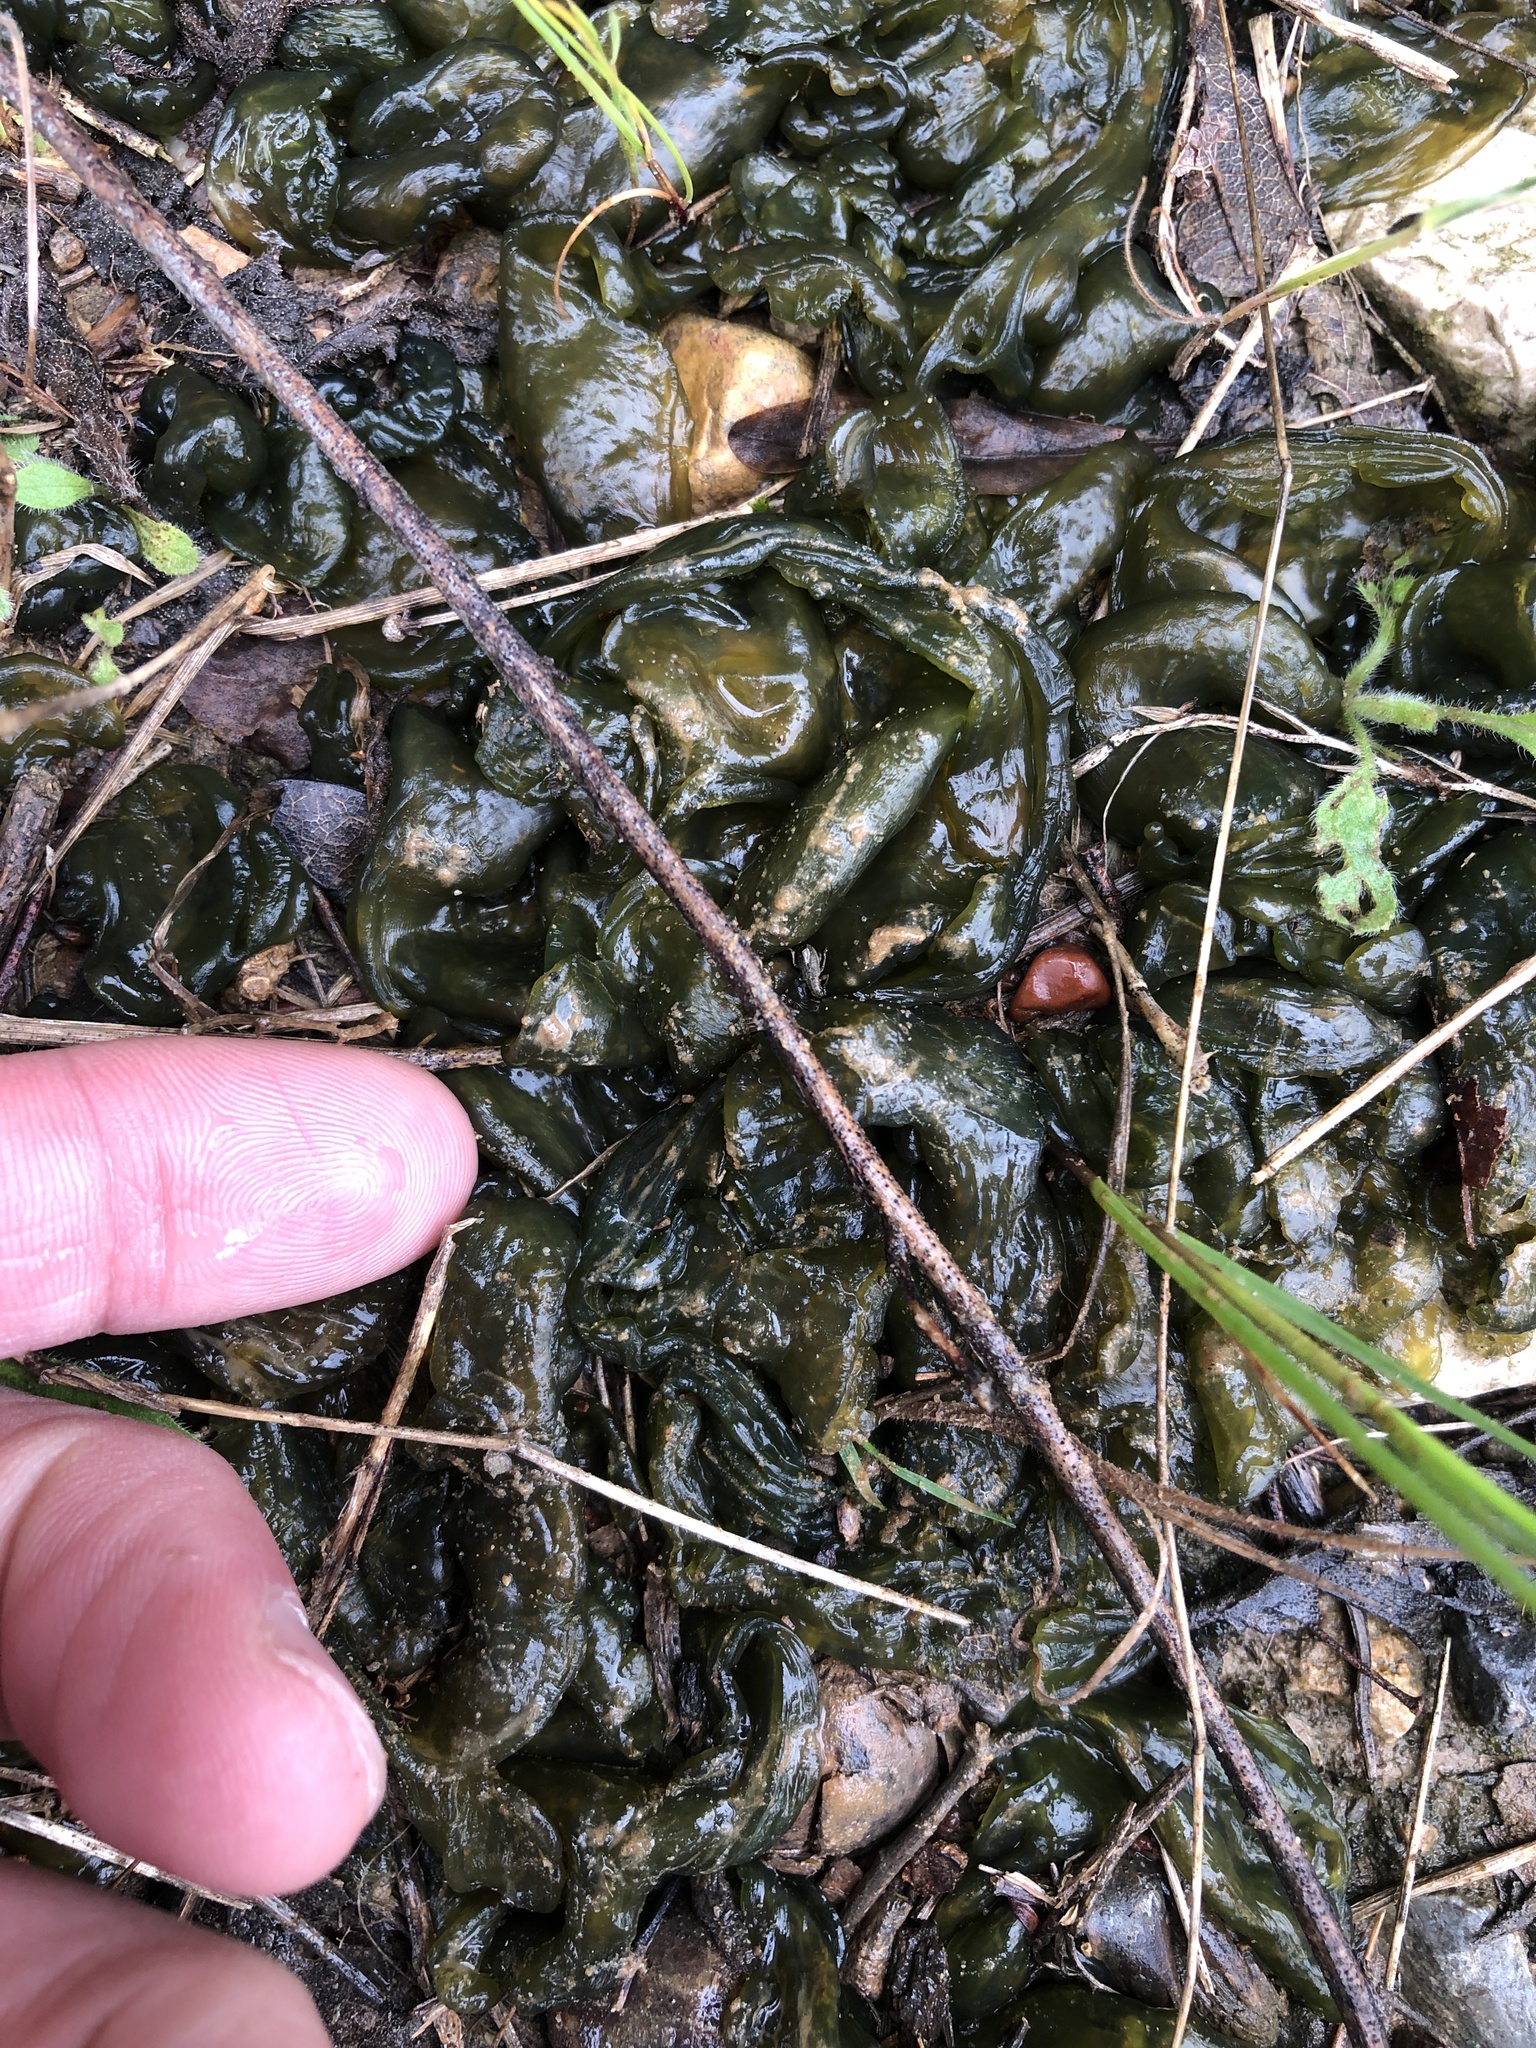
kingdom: Bacteria
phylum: Cyanobacteria
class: Cyanobacteriia
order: Cyanobacteriales
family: Nostocaceae
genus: Nostoc
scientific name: Nostoc commune
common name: Star jelly
